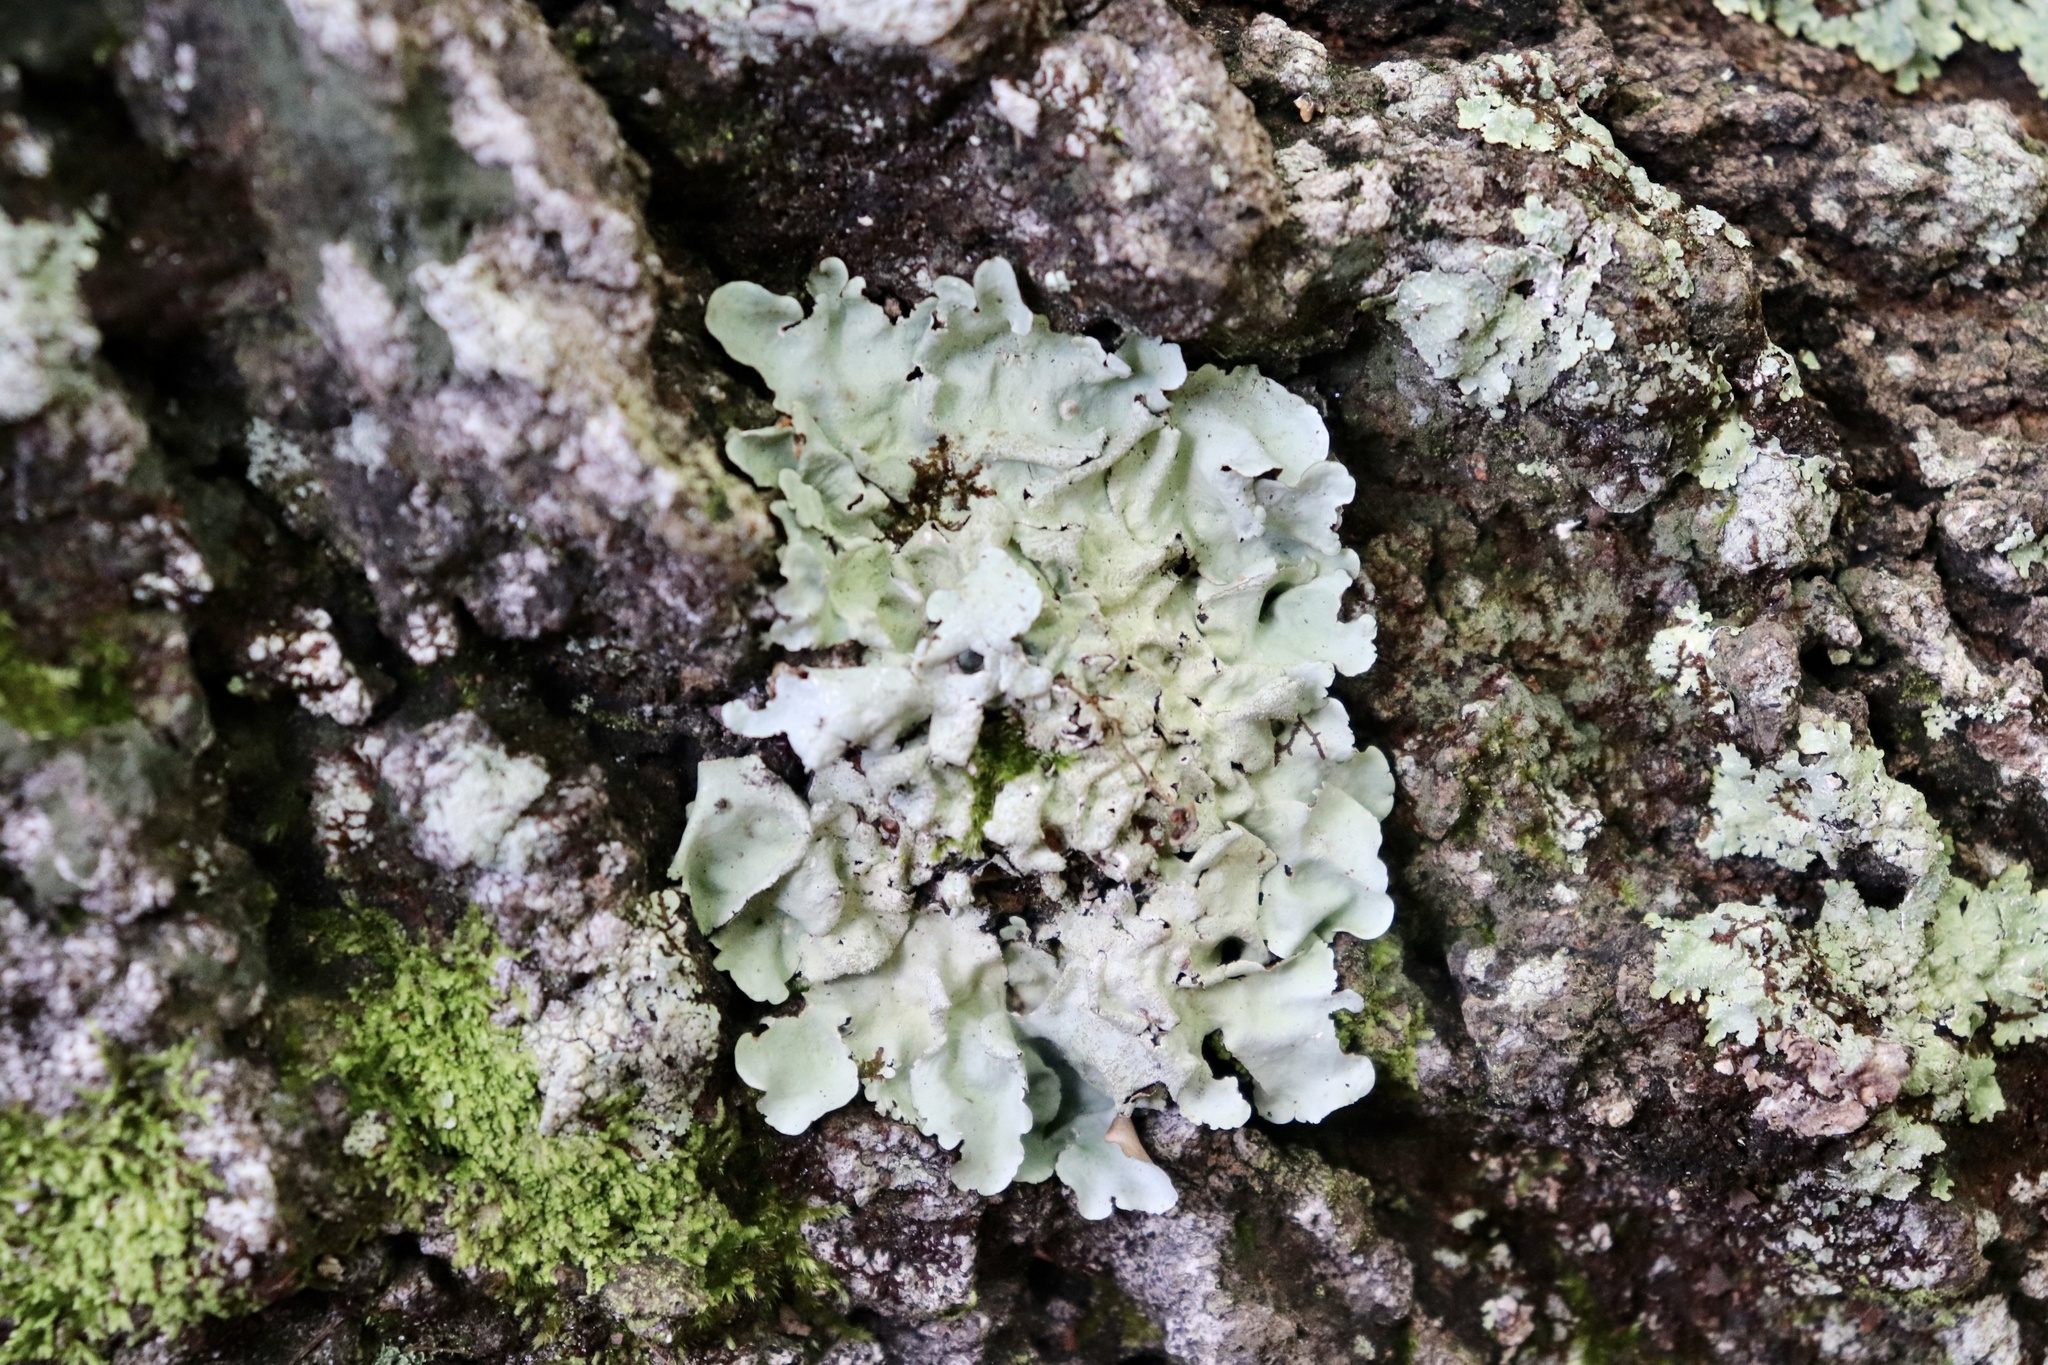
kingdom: Fungi
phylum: Ascomycota
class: Lecanoromycetes
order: Lecanorales
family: Parmeliaceae
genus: Parmotrema
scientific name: Parmotrema tinctorum
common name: Old gray ruffles
